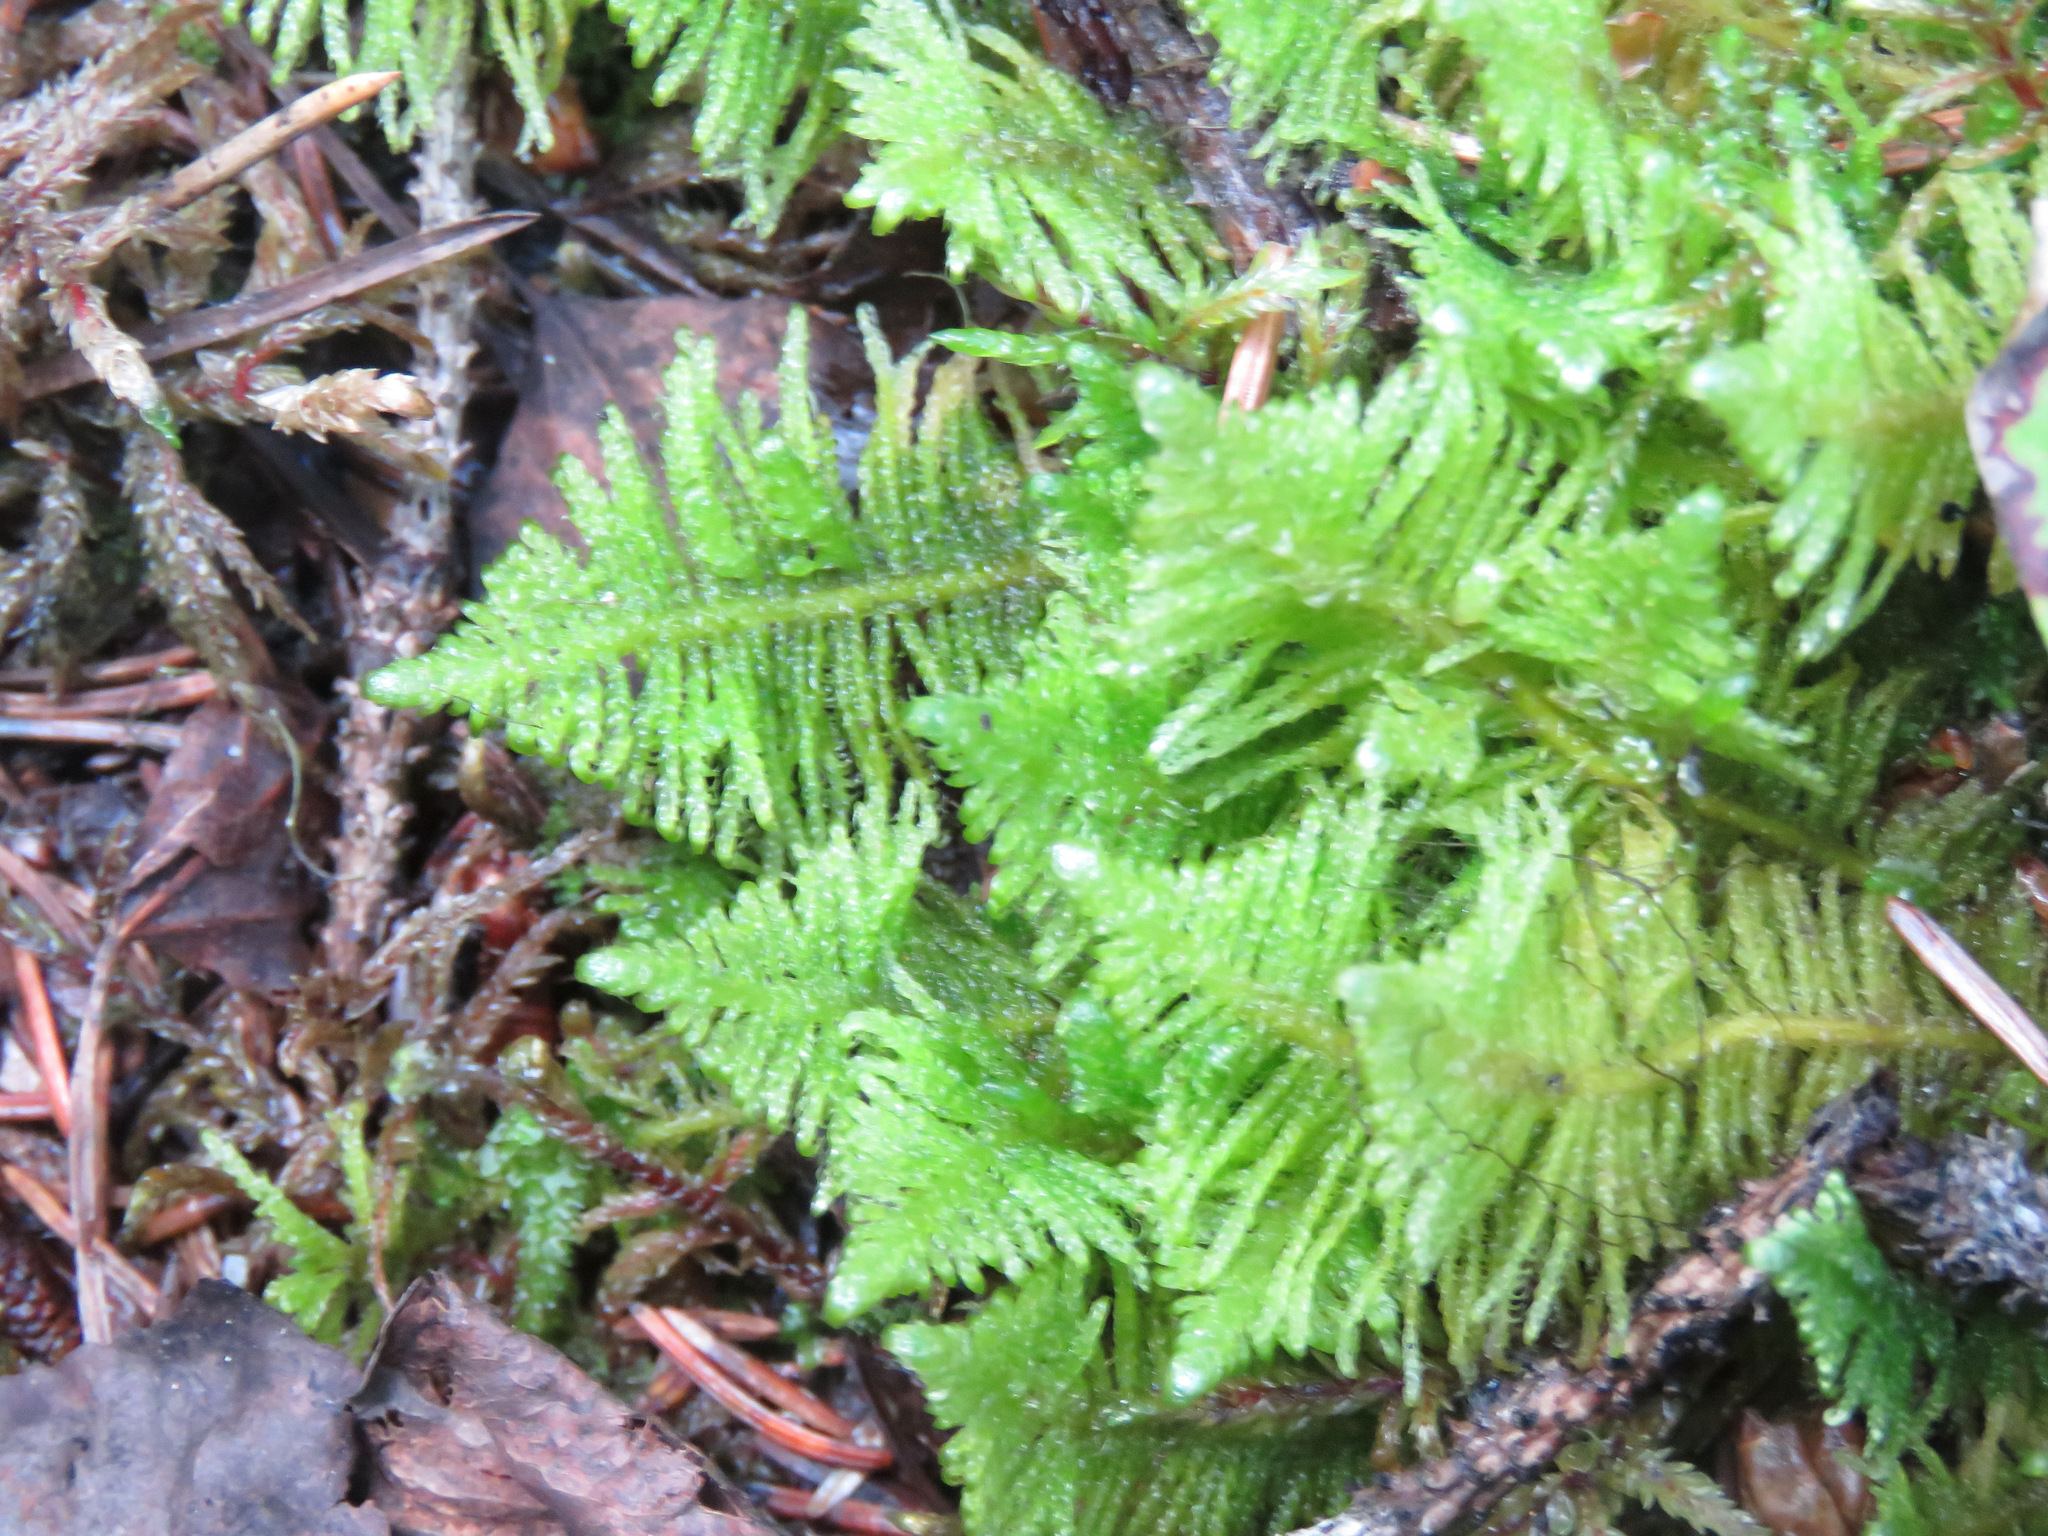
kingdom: Plantae
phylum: Bryophyta
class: Bryopsida
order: Hypnales
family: Pylaisiaceae
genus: Ptilium
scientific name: Ptilium crista-castrensis
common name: Knight's plume moss
